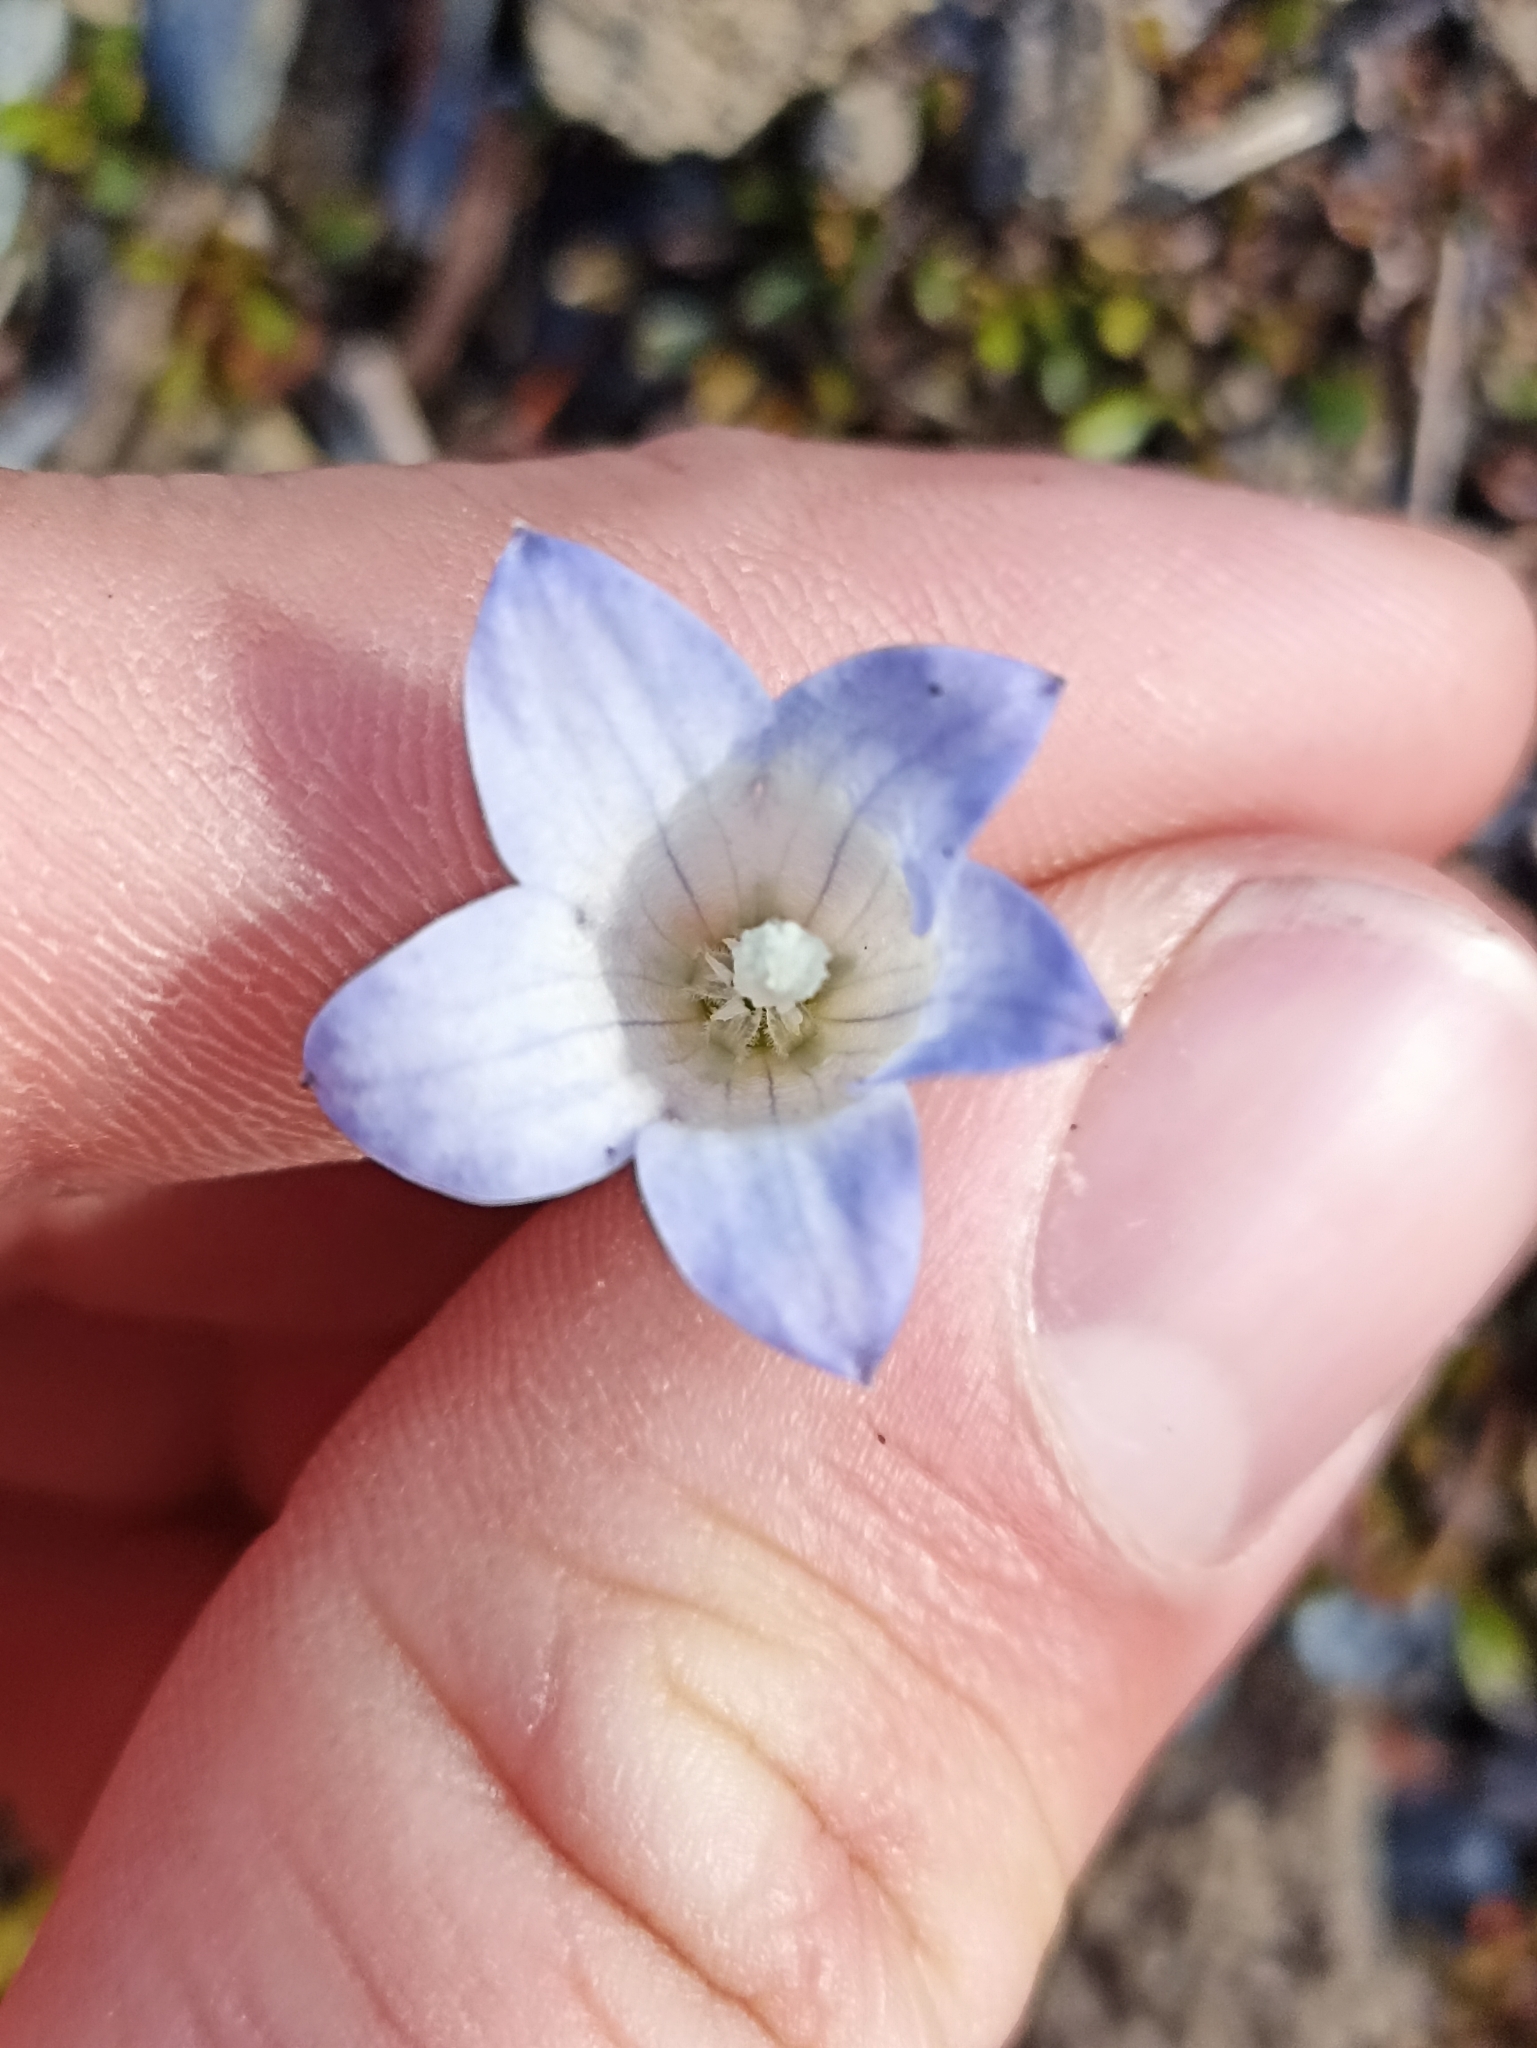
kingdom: Plantae
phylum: Tracheophyta
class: Magnoliopsida
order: Asterales
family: Campanulaceae
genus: Wahlenbergia
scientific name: Wahlenbergia pygmaea
